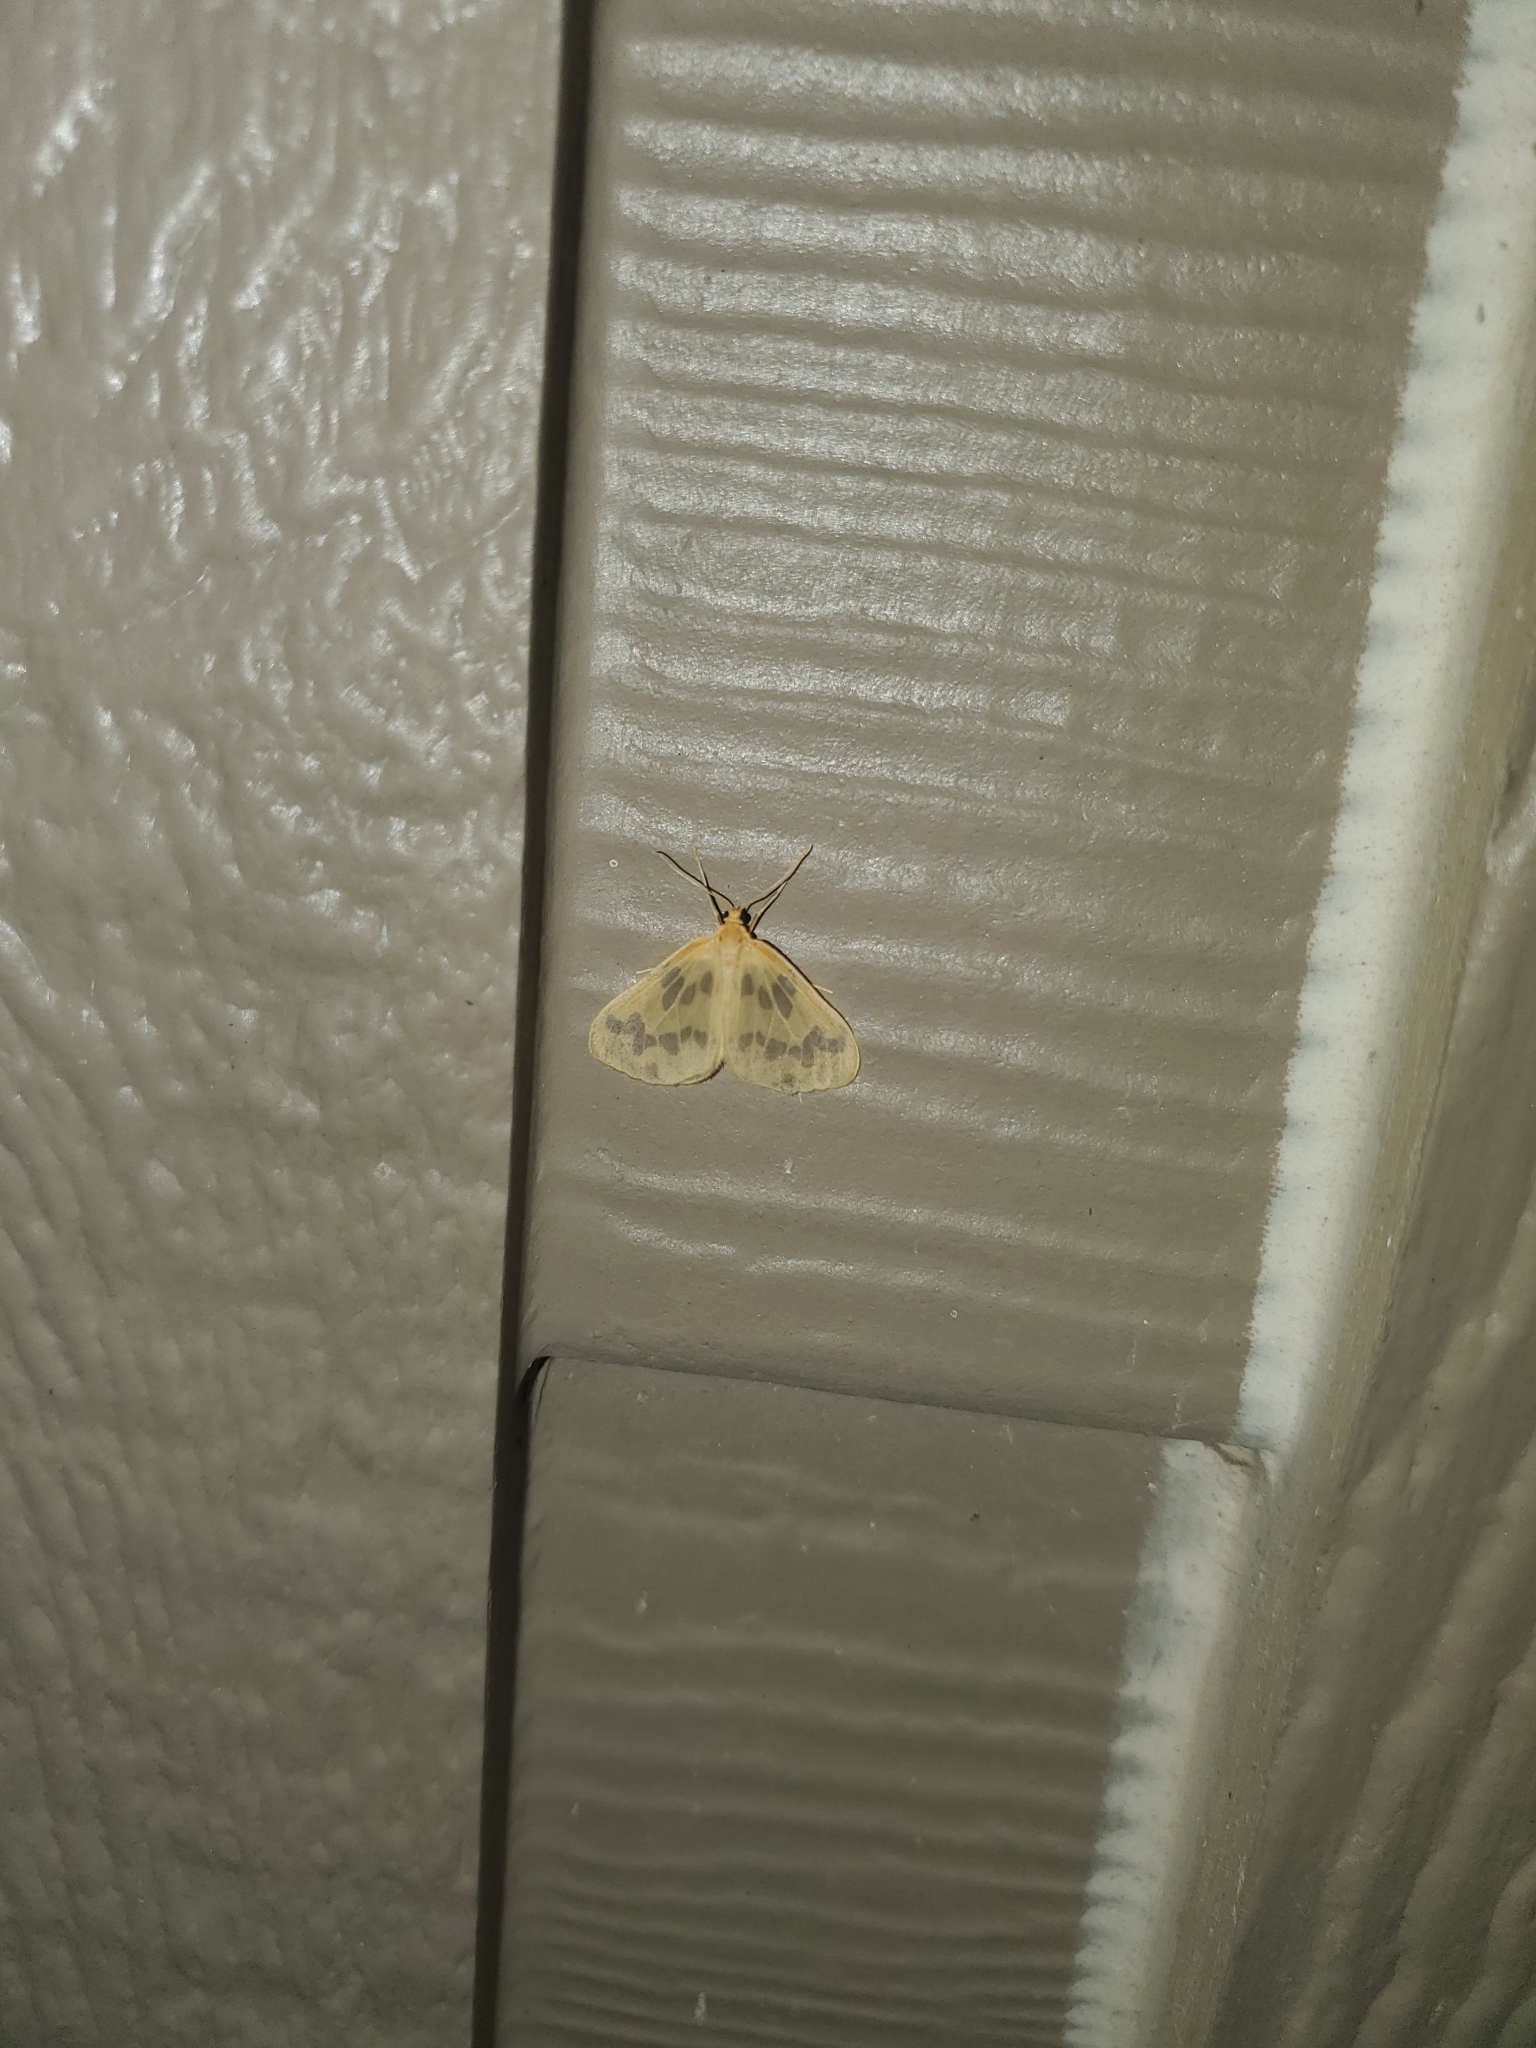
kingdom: Animalia
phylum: Arthropoda
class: Insecta
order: Lepidoptera
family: Geometridae
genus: Eubaphe
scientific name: Eubaphe mendica
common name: Beggar
